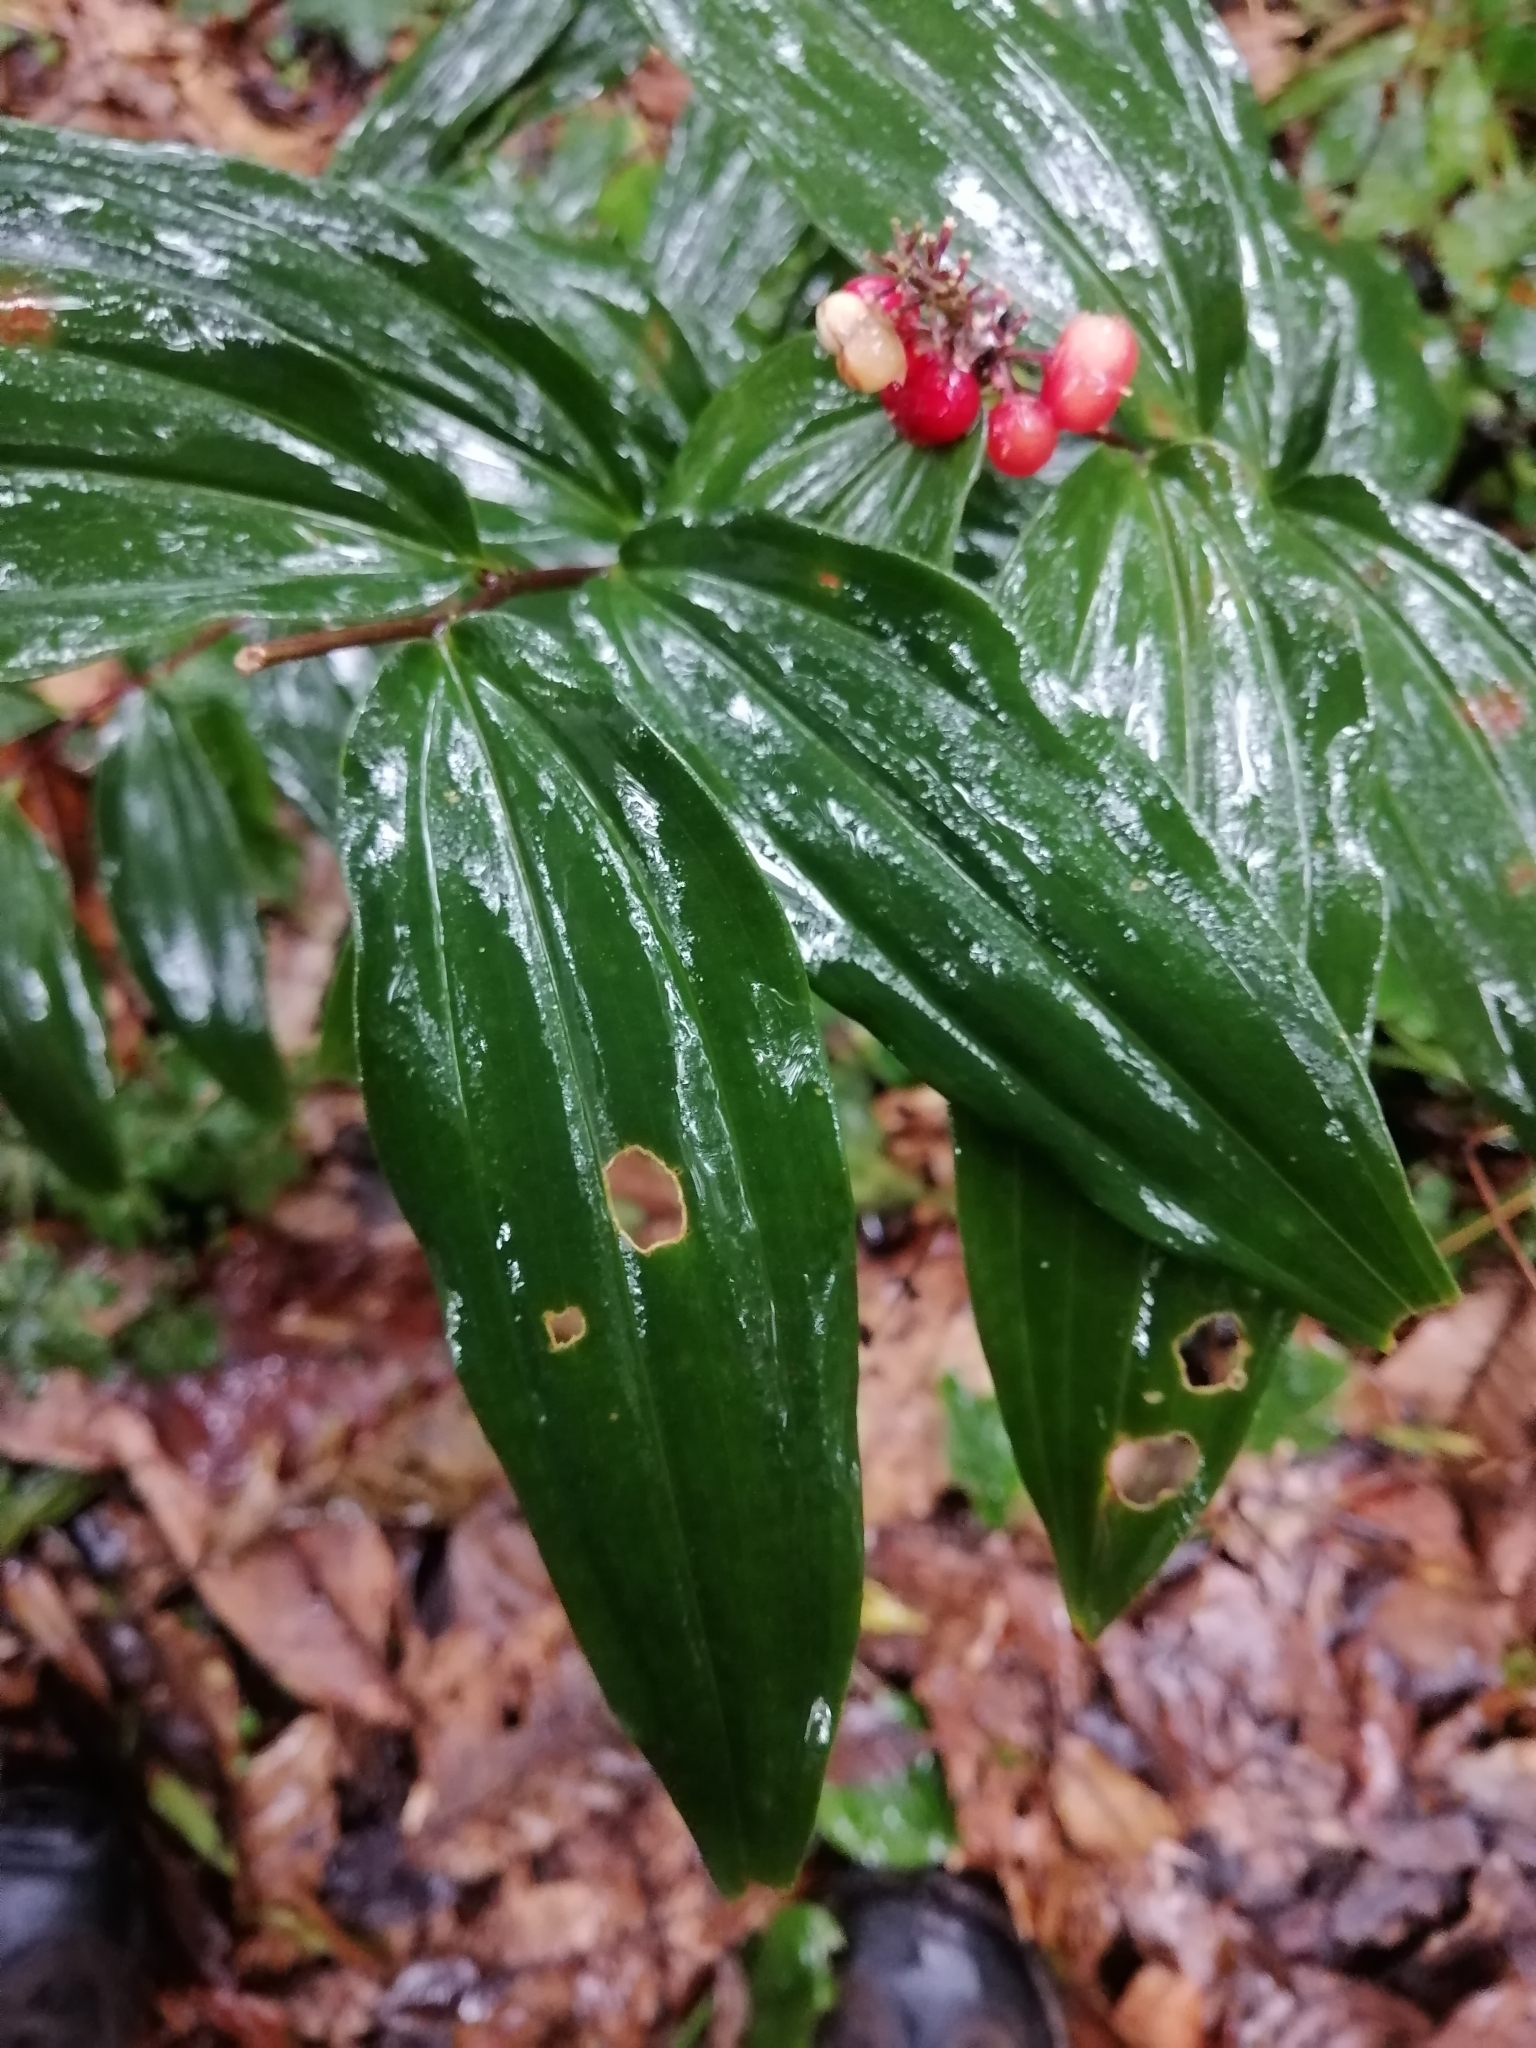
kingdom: Plantae
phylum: Tracheophyta
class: Liliopsida
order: Asparagales
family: Asparagaceae
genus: Maianthemum
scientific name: Maianthemum scilloideum
